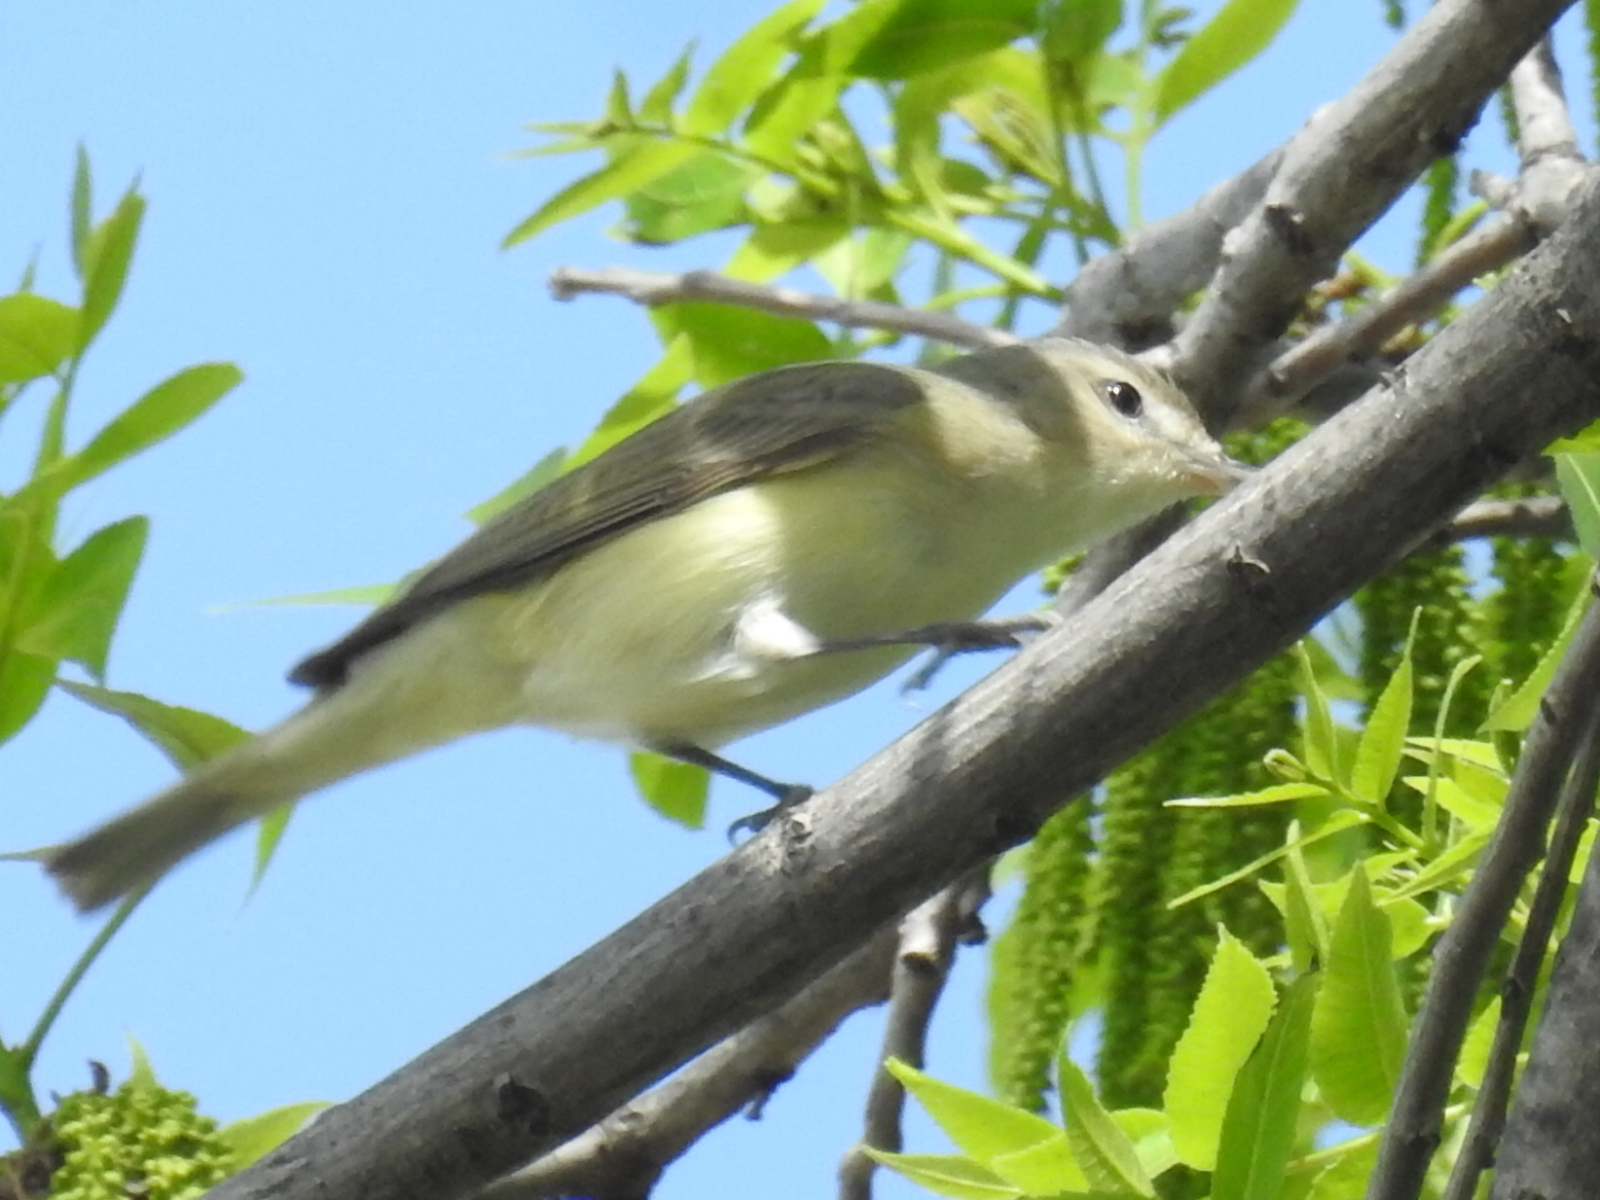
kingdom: Animalia
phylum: Chordata
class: Aves
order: Passeriformes
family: Vireonidae
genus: Vireo
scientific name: Vireo gilvus
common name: Warbling vireo
